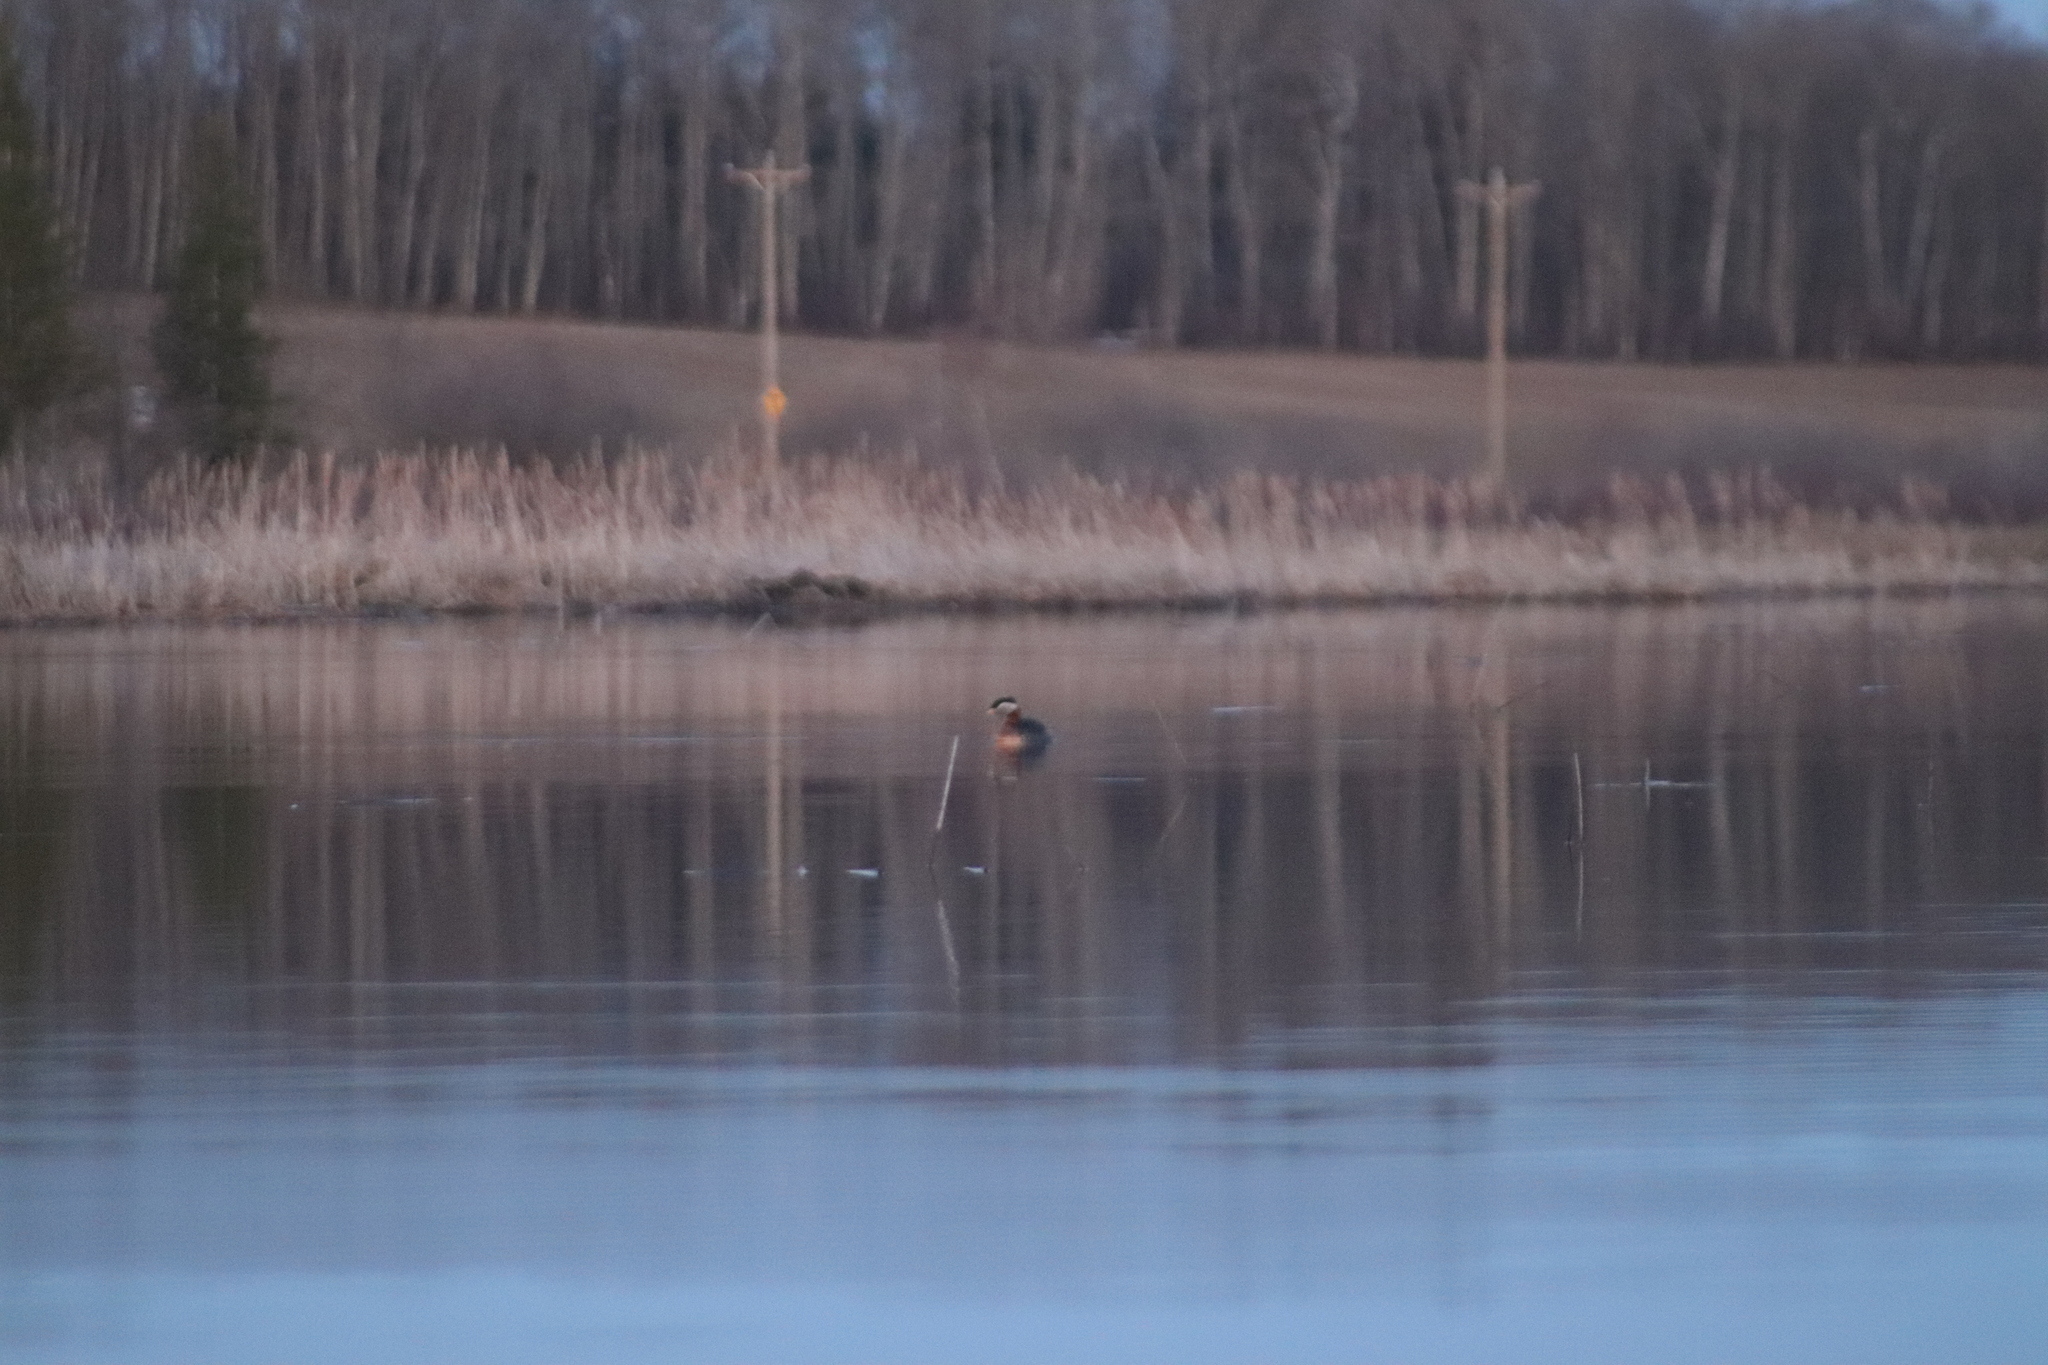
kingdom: Animalia
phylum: Chordata
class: Aves
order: Podicipediformes
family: Podicipedidae
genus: Podiceps
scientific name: Podiceps grisegena
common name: Red-necked grebe
